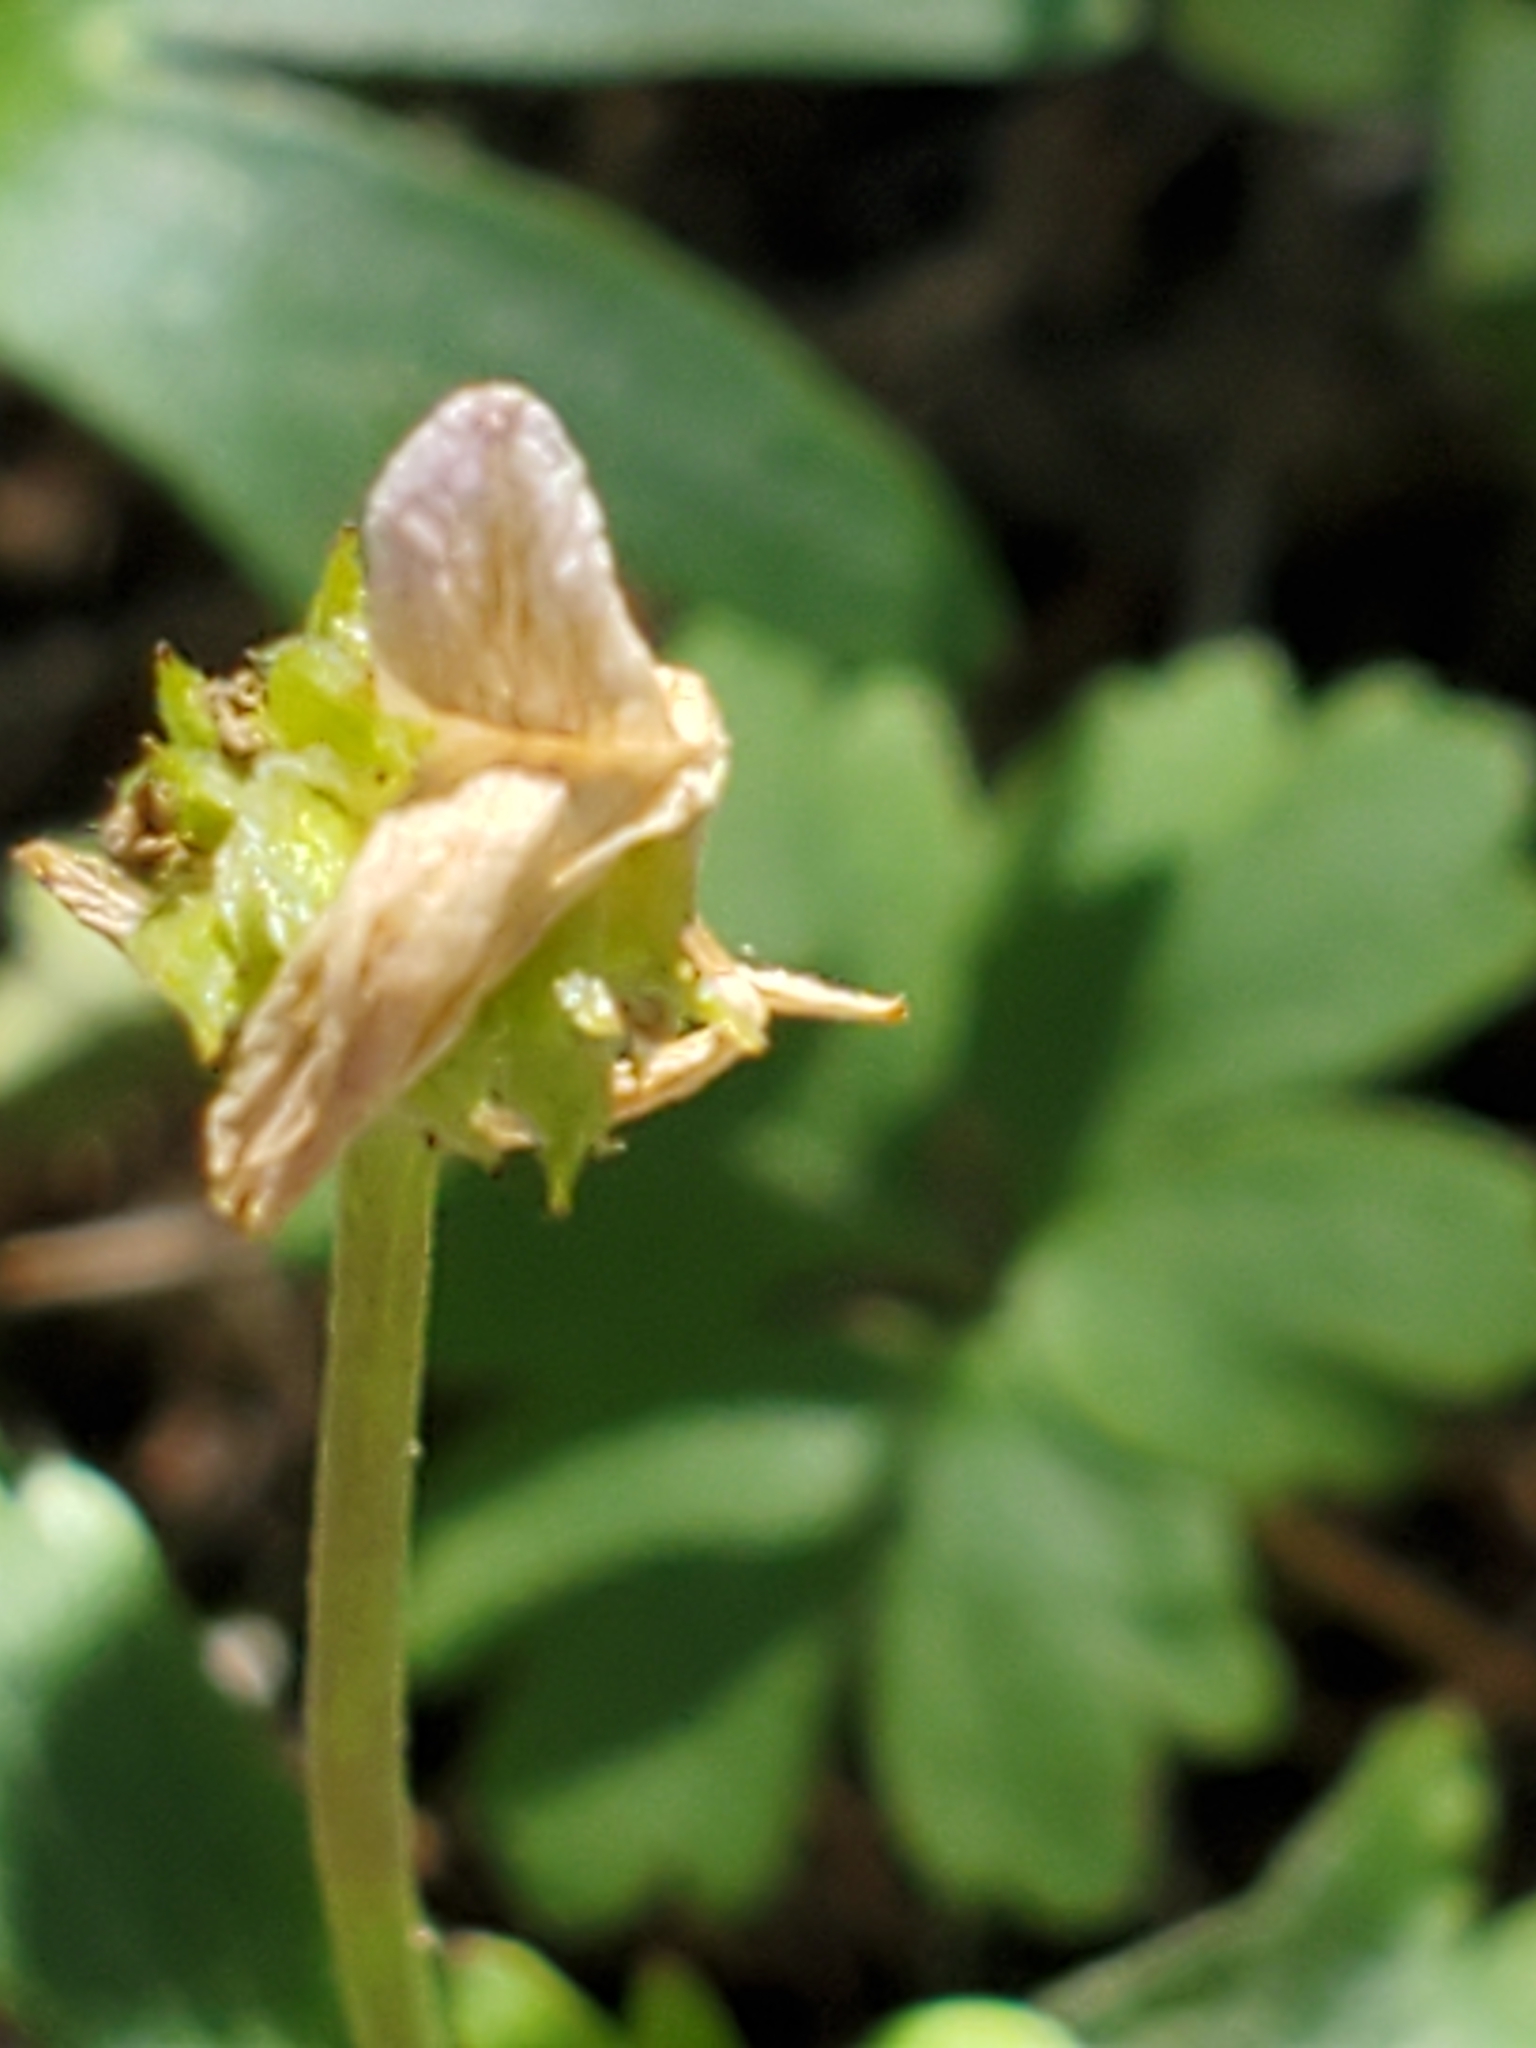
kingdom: Plantae
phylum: Tracheophyta
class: Magnoliopsida
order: Ranunculales
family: Ranunculaceae
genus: Anemone
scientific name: Anemone edwardsiana
